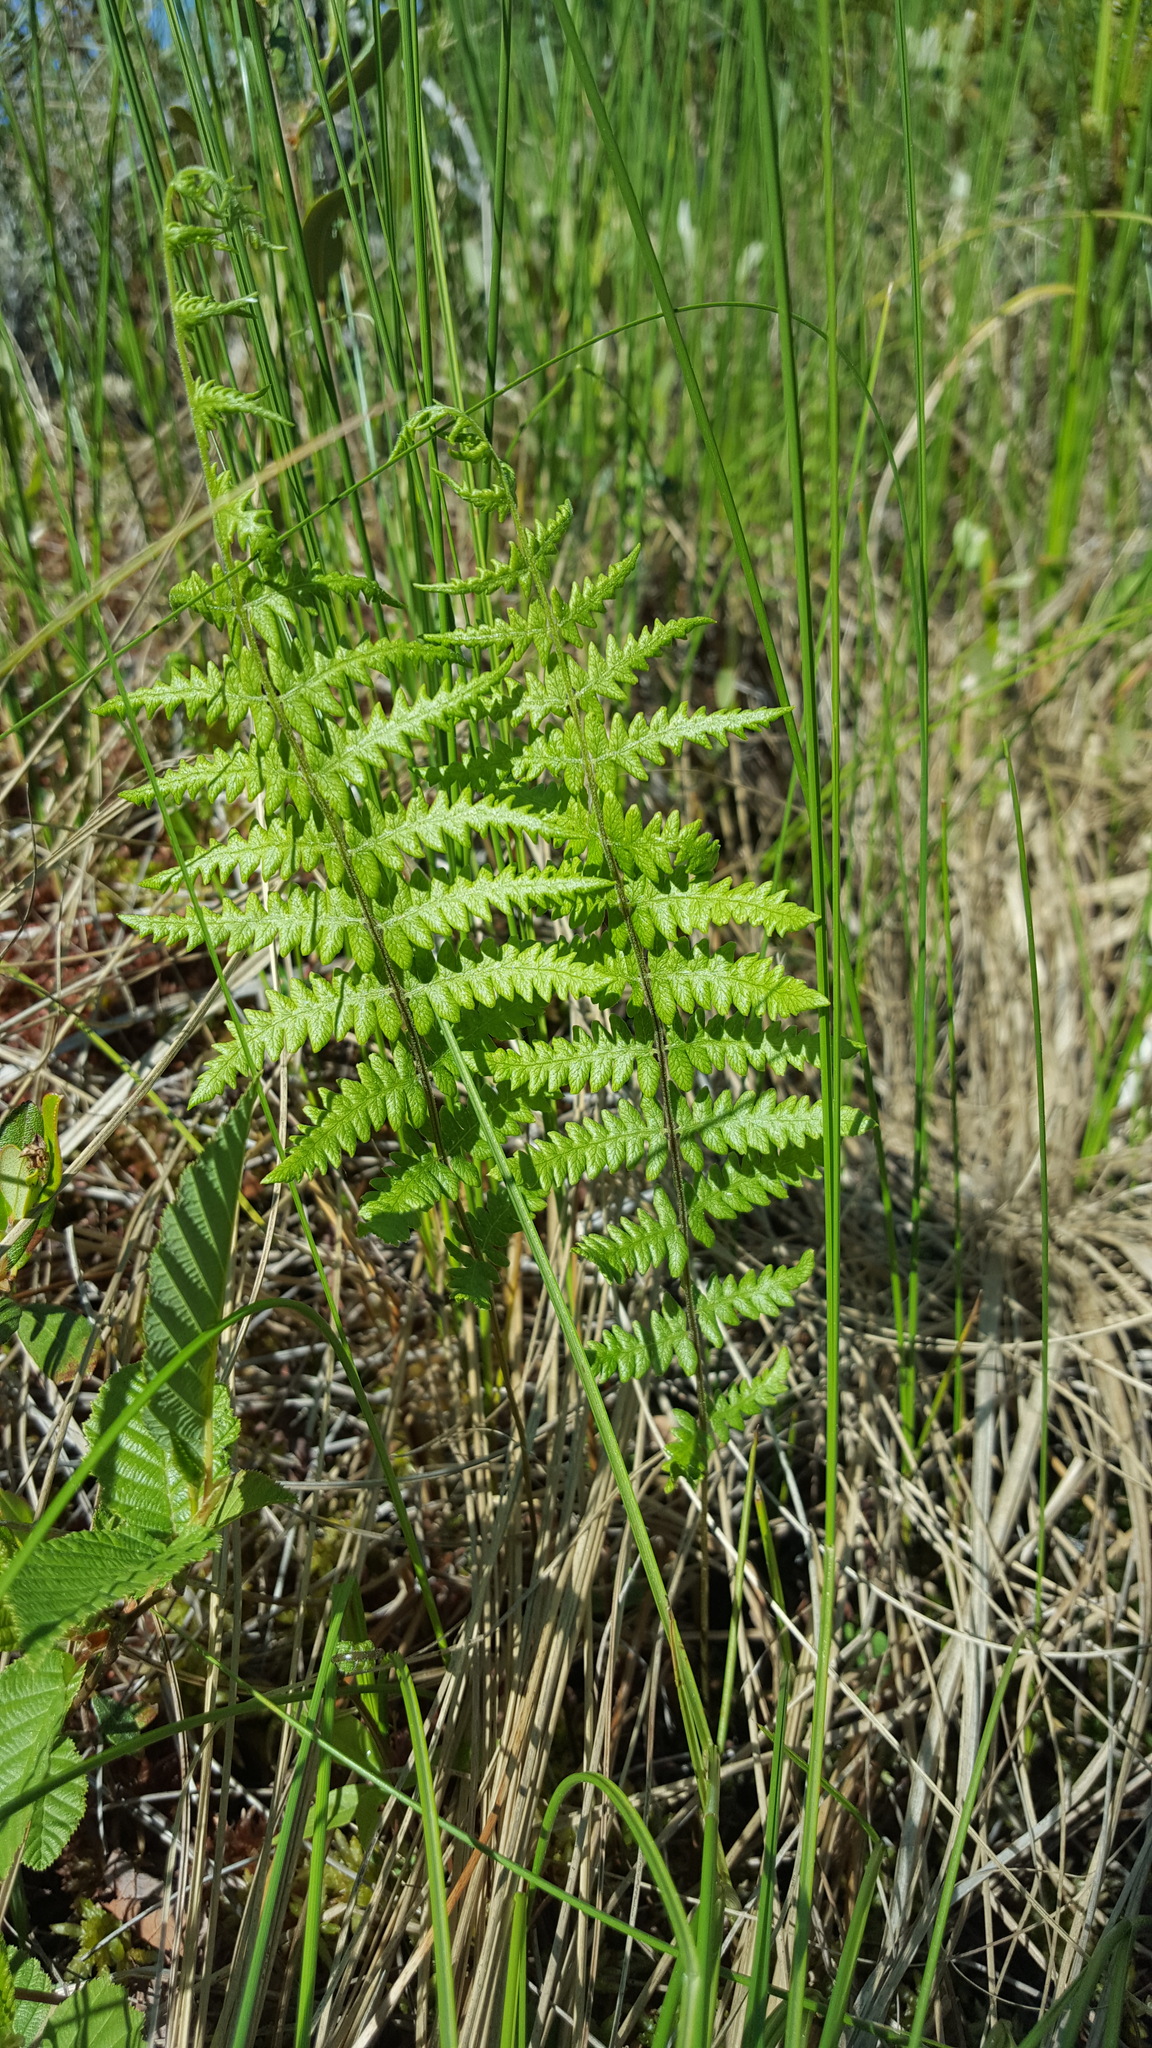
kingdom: Plantae
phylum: Tracheophyta
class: Polypodiopsida
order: Polypodiales
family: Thelypteridaceae
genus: Thelypteris
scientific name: Thelypteris palustris
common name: Marsh fern
